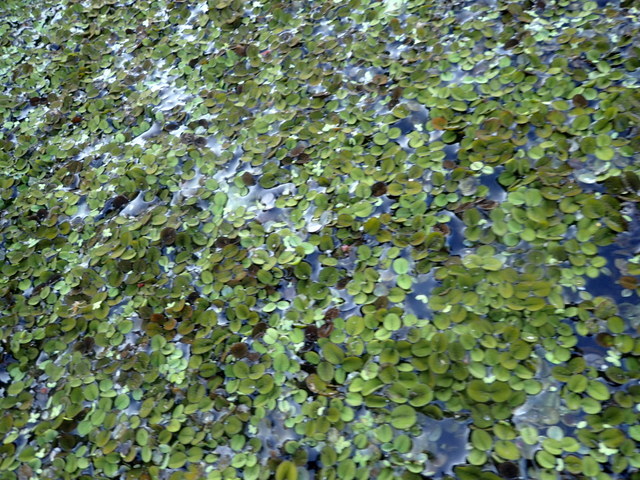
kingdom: Plantae
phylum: Tracheophyta
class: Polypodiopsida
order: Salviniales
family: Salviniaceae
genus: Salvinia
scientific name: Salvinia minima
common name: Water spangles
